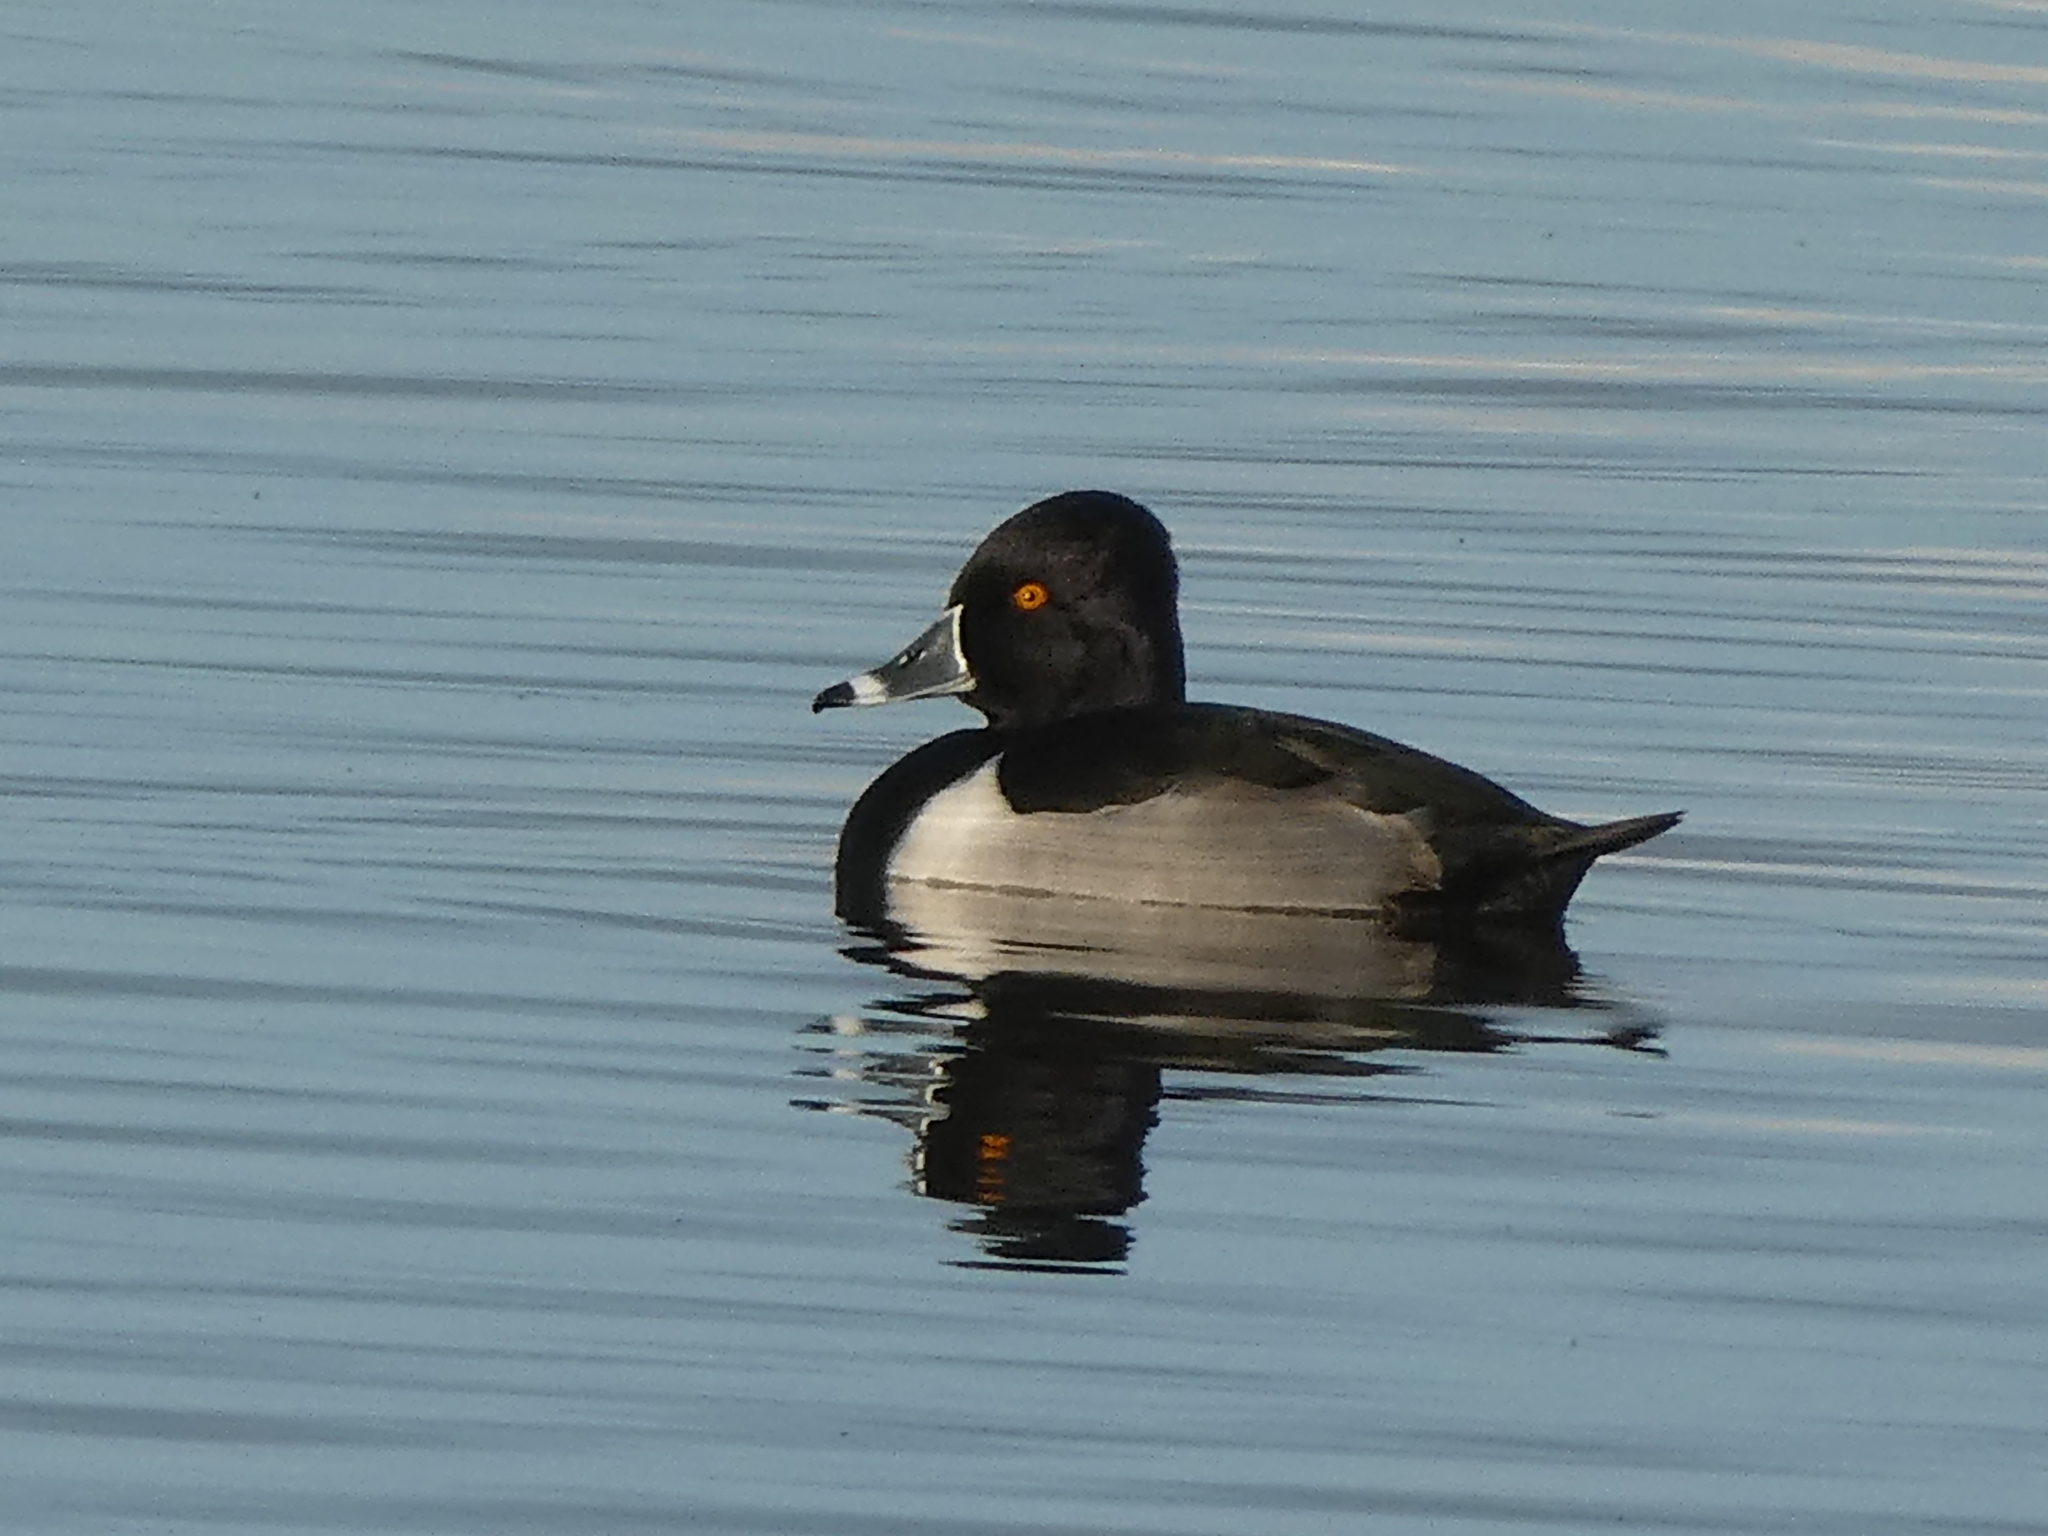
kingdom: Animalia
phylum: Chordata
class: Aves
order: Anseriformes
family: Anatidae
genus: Aythya
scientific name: Aythya collaris
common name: Ring-necked duck
